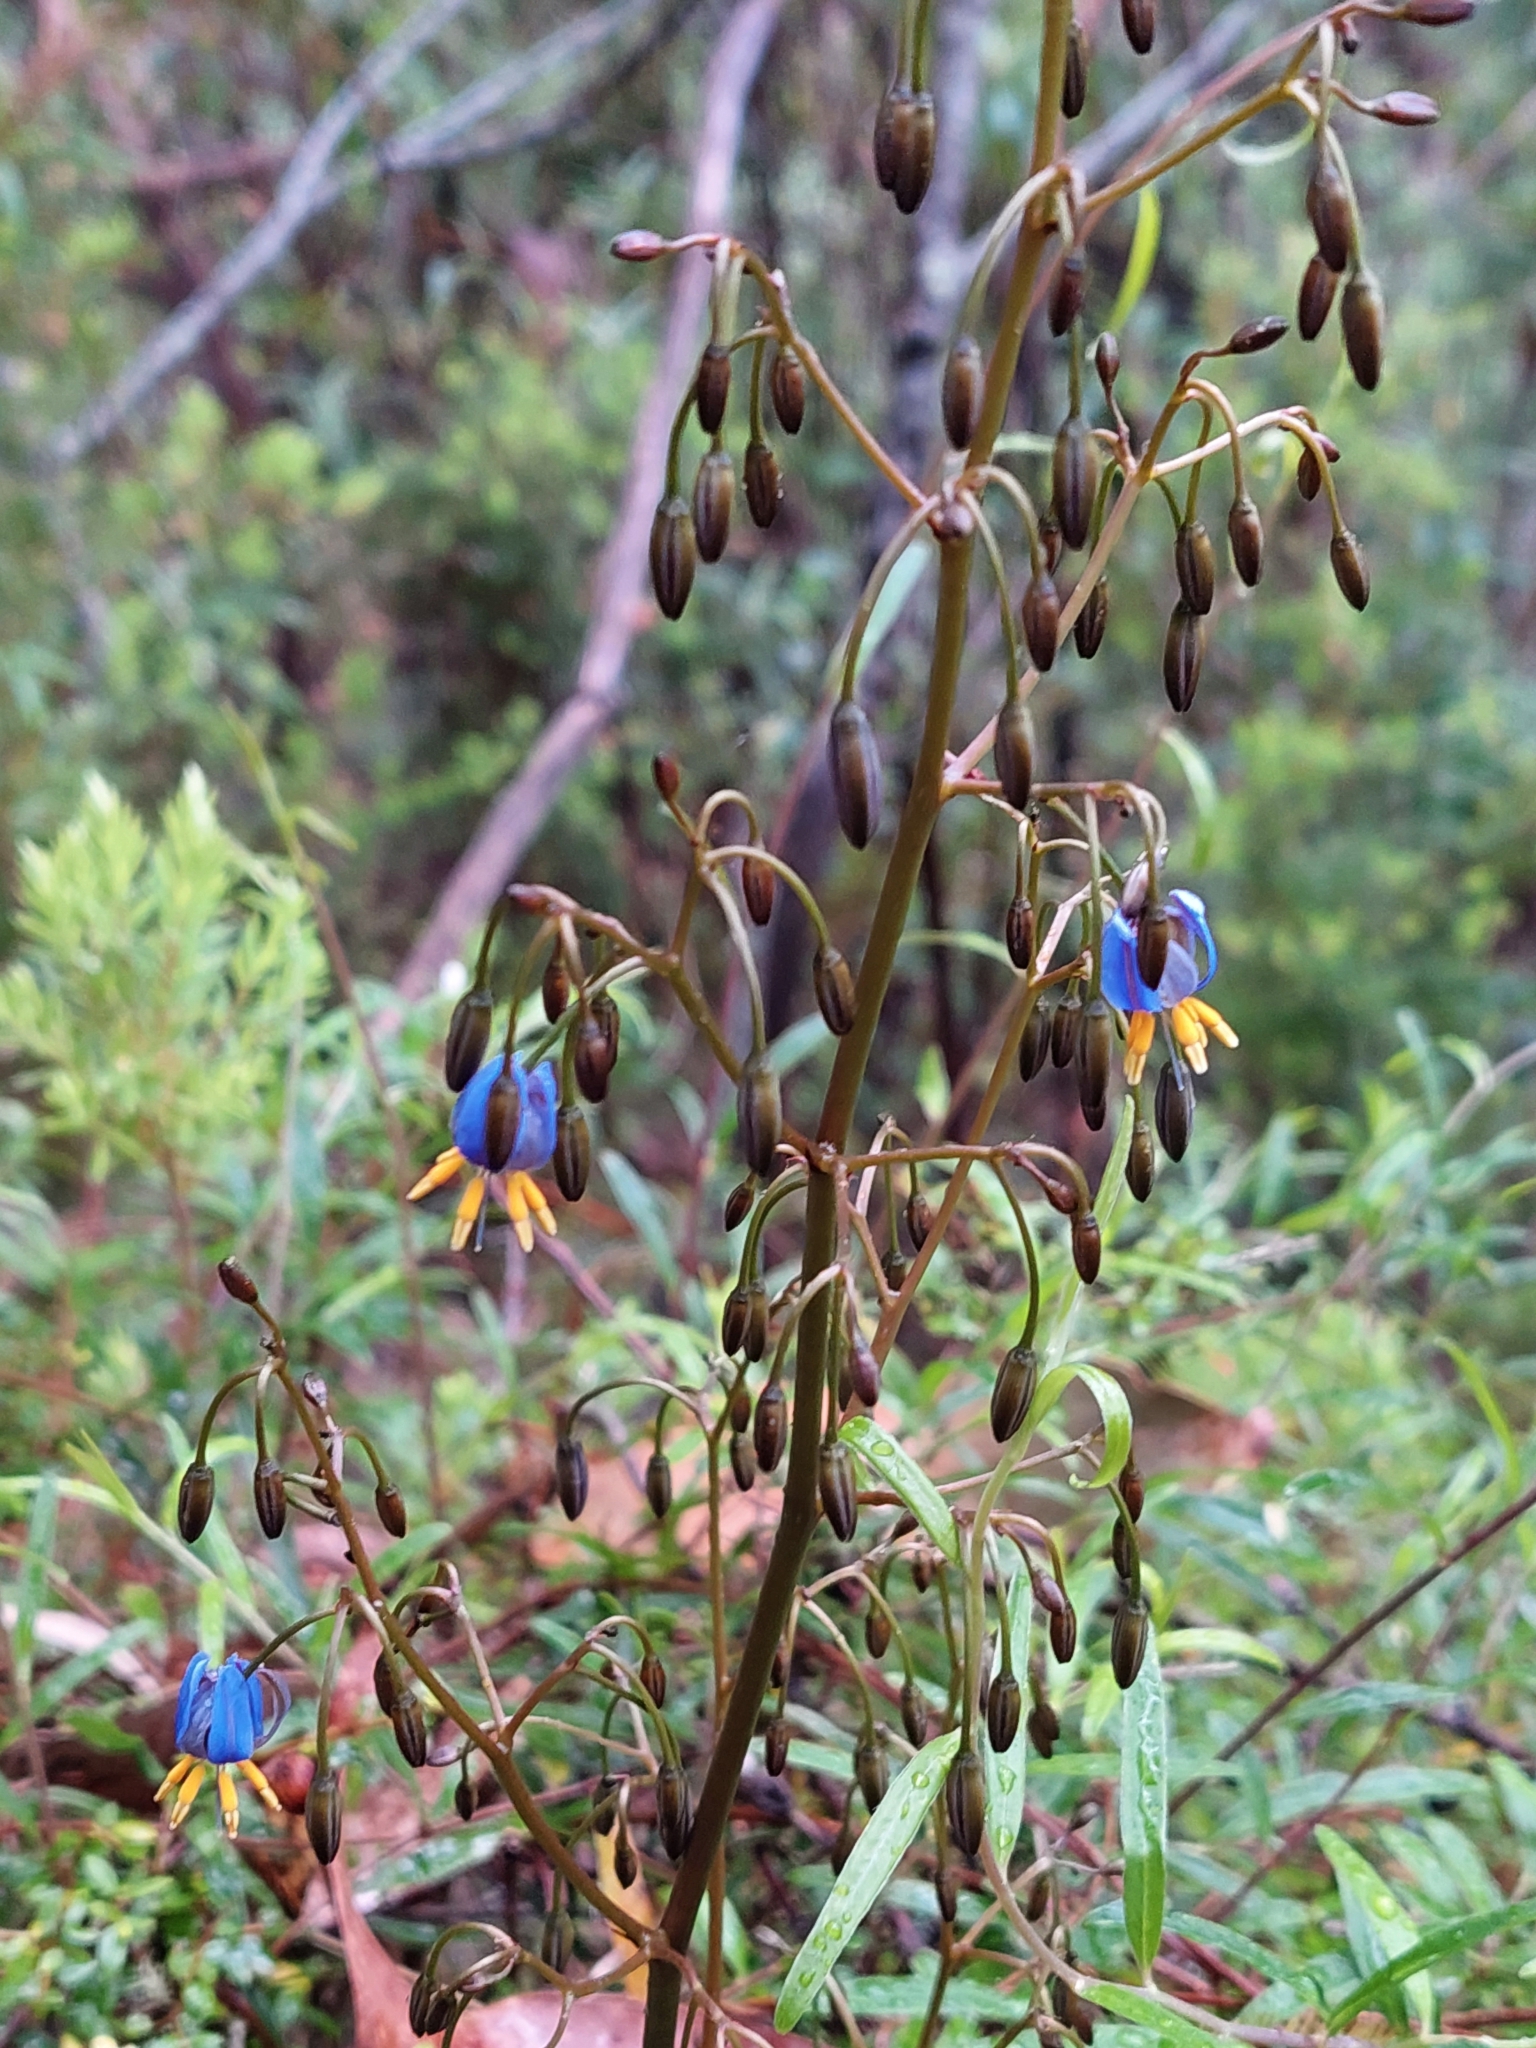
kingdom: Plantae
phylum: Tracheophyta
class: Liliopsida
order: Asparagales
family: Asphodelaceae
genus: Dianella
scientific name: Dianella tasmanica
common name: Tasman flax-lily
